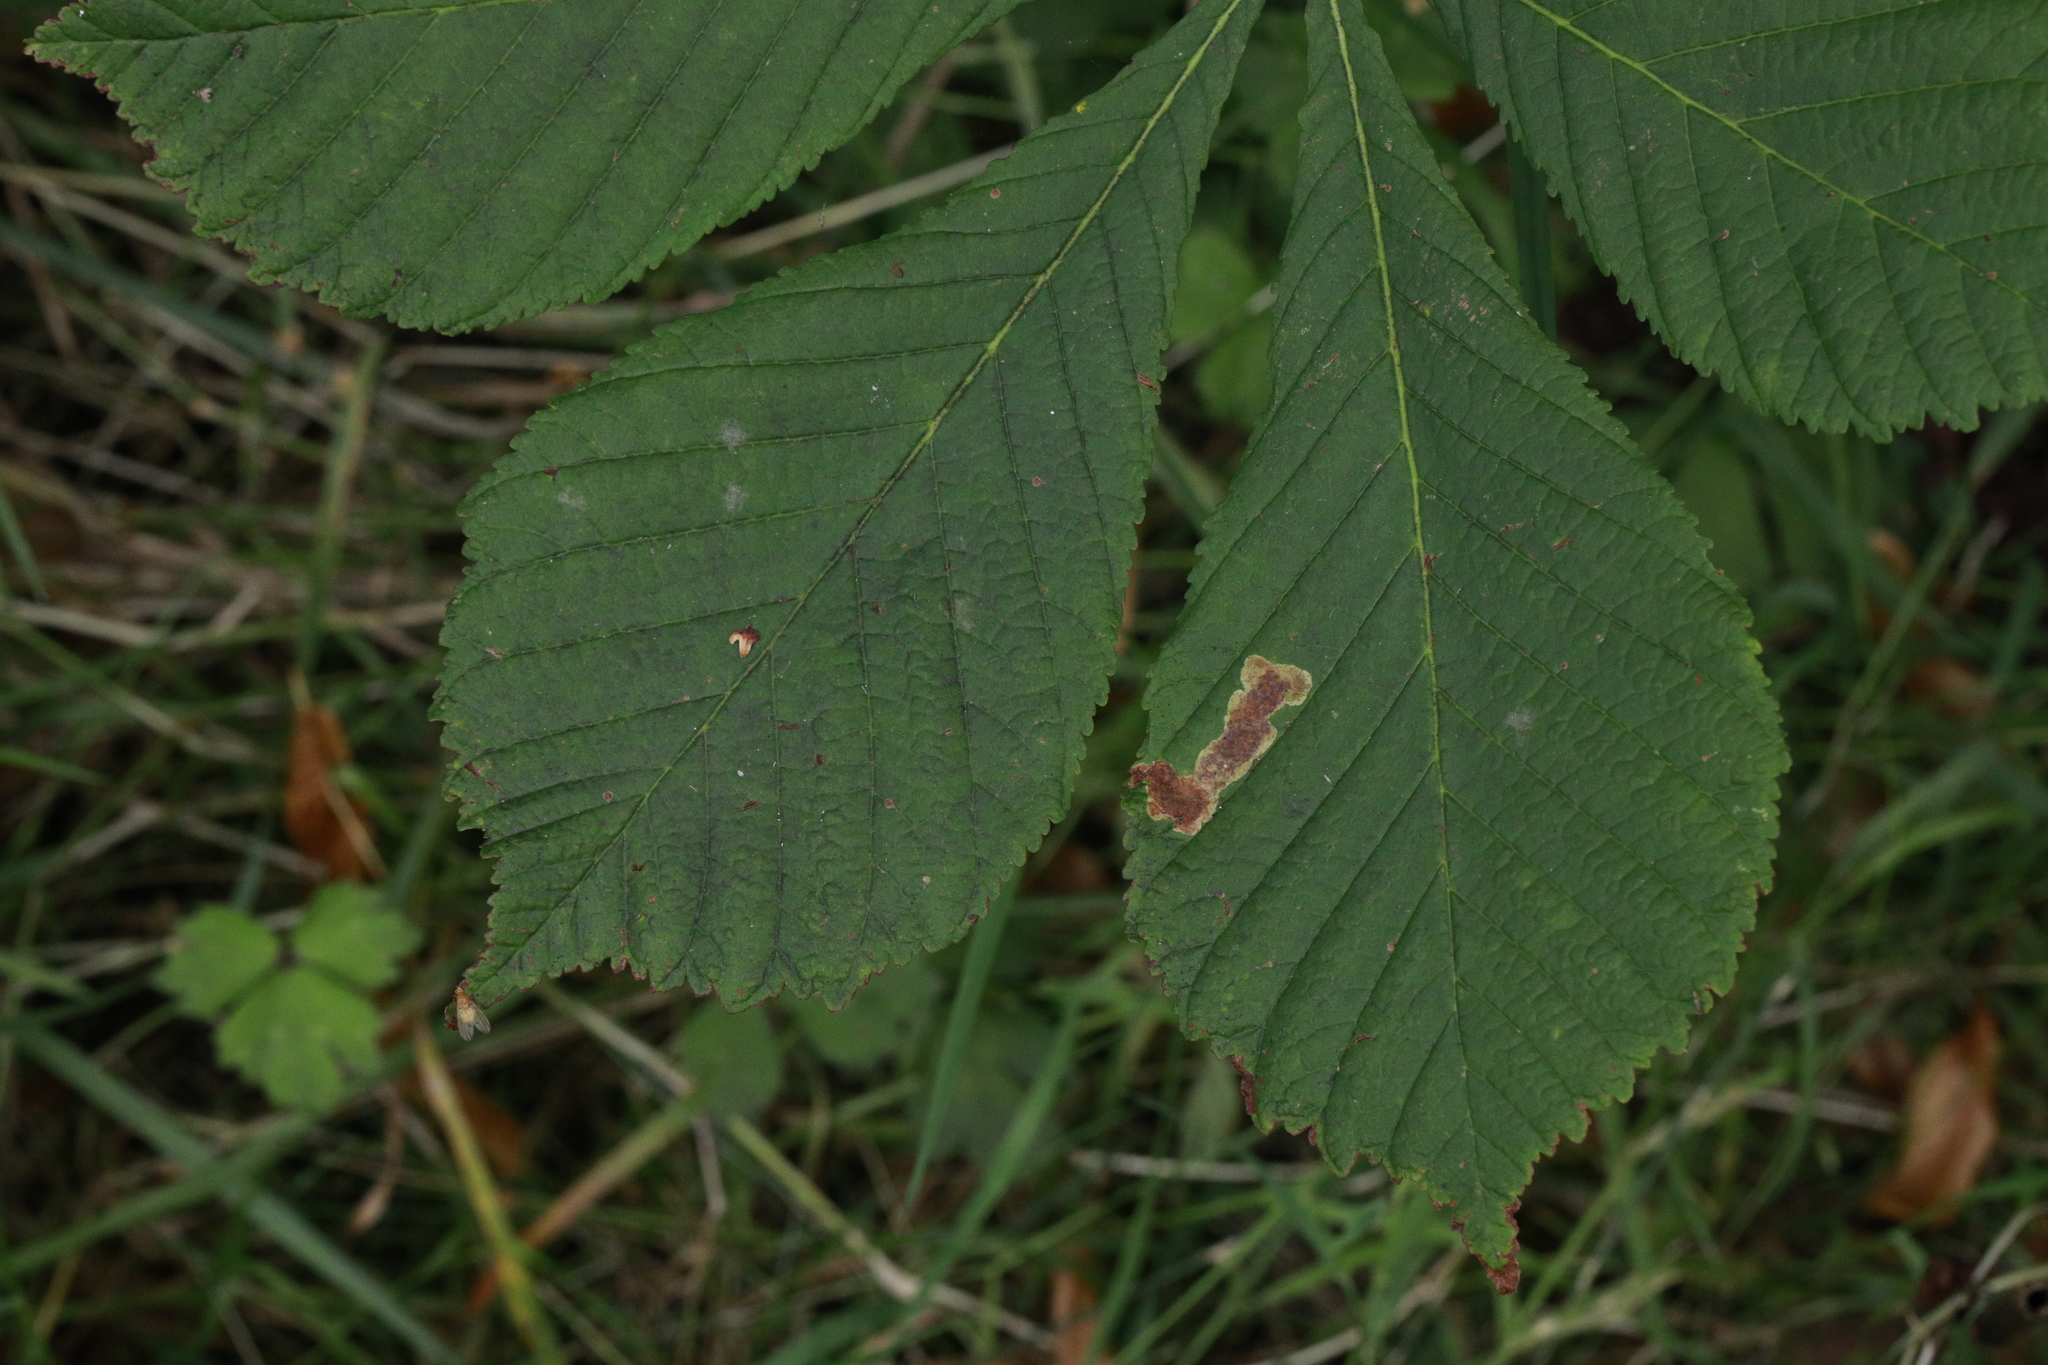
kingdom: Animalia
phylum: Arthropoda
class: Insecta
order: Lepidoptera
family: Gracillariidae
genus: Cameraria
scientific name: Cameraria ohridella
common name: Horse-chestnut leaf-miner
